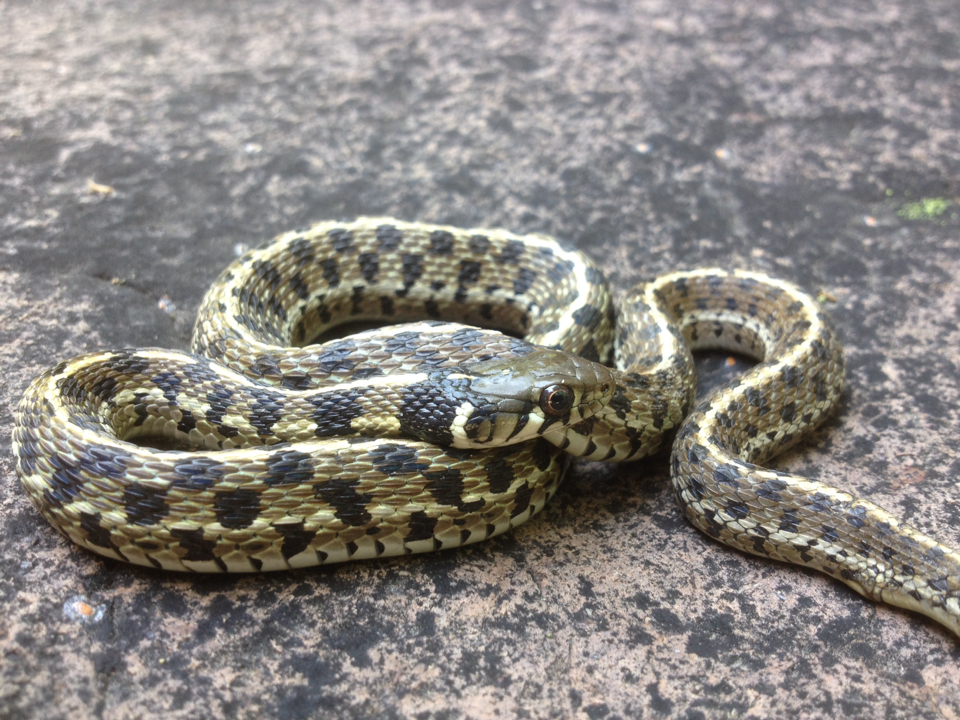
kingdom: Animalia
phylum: Chordata
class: Squamata
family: Colubridae
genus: Thamnophis
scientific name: Thamnophis marcianus
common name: Checkered garter snake
